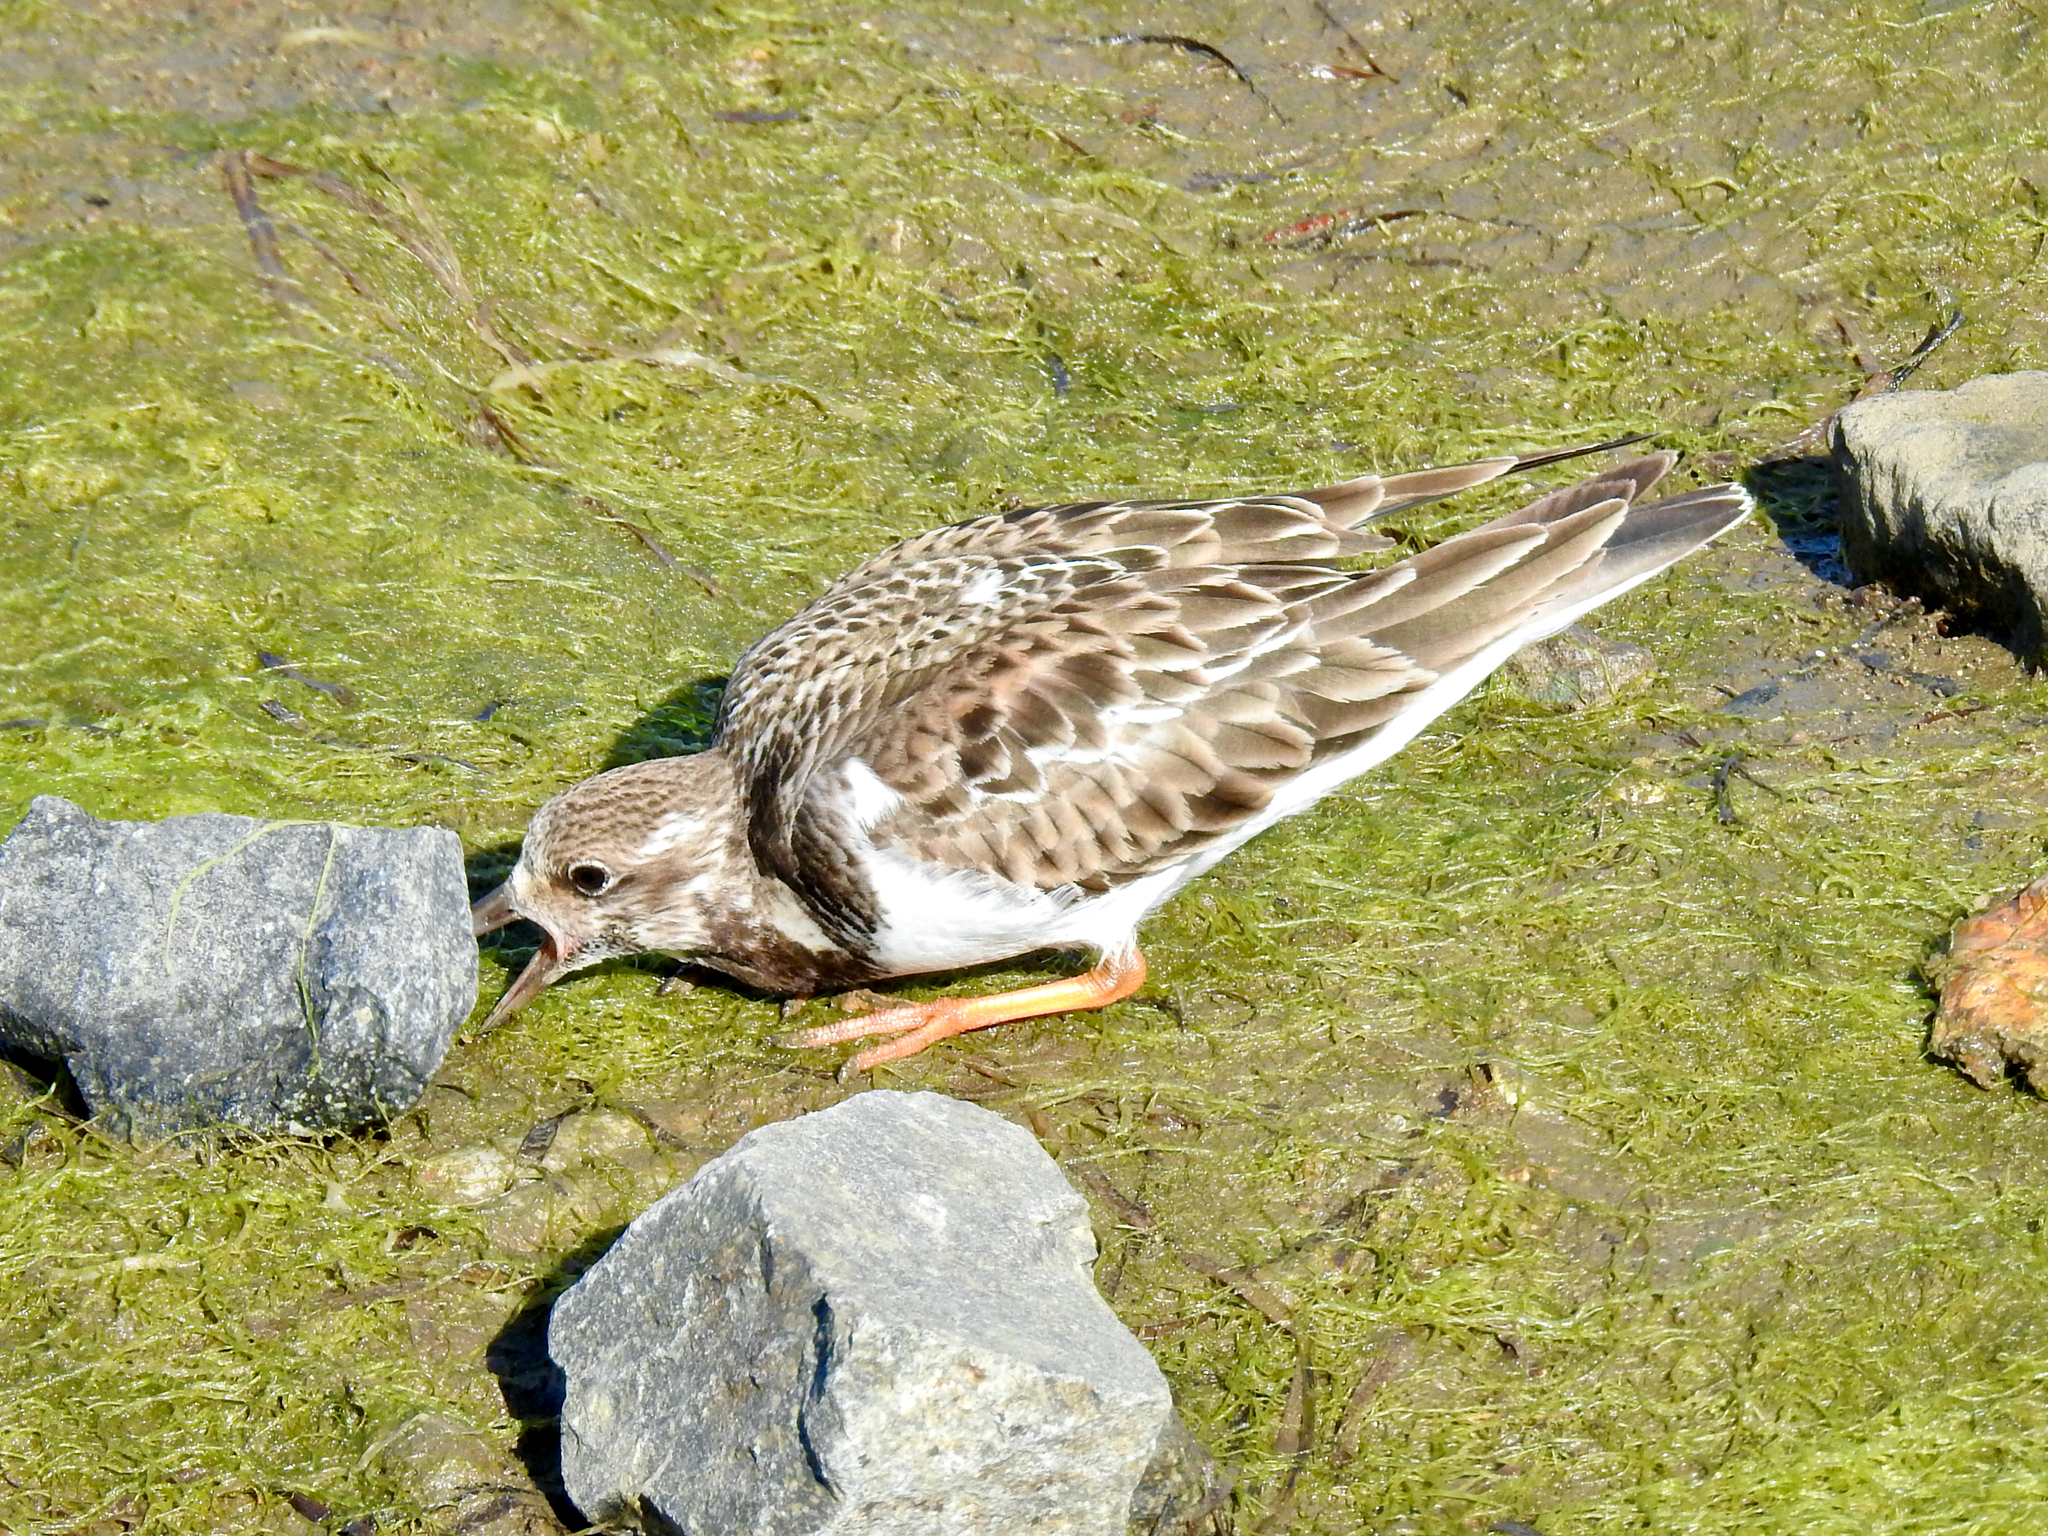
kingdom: Animalia
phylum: Chordata
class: Aves
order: Charadriiformes
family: Scolopacidae
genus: Arenaria
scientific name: Arenaria interpres
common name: Ruddy turnstone
